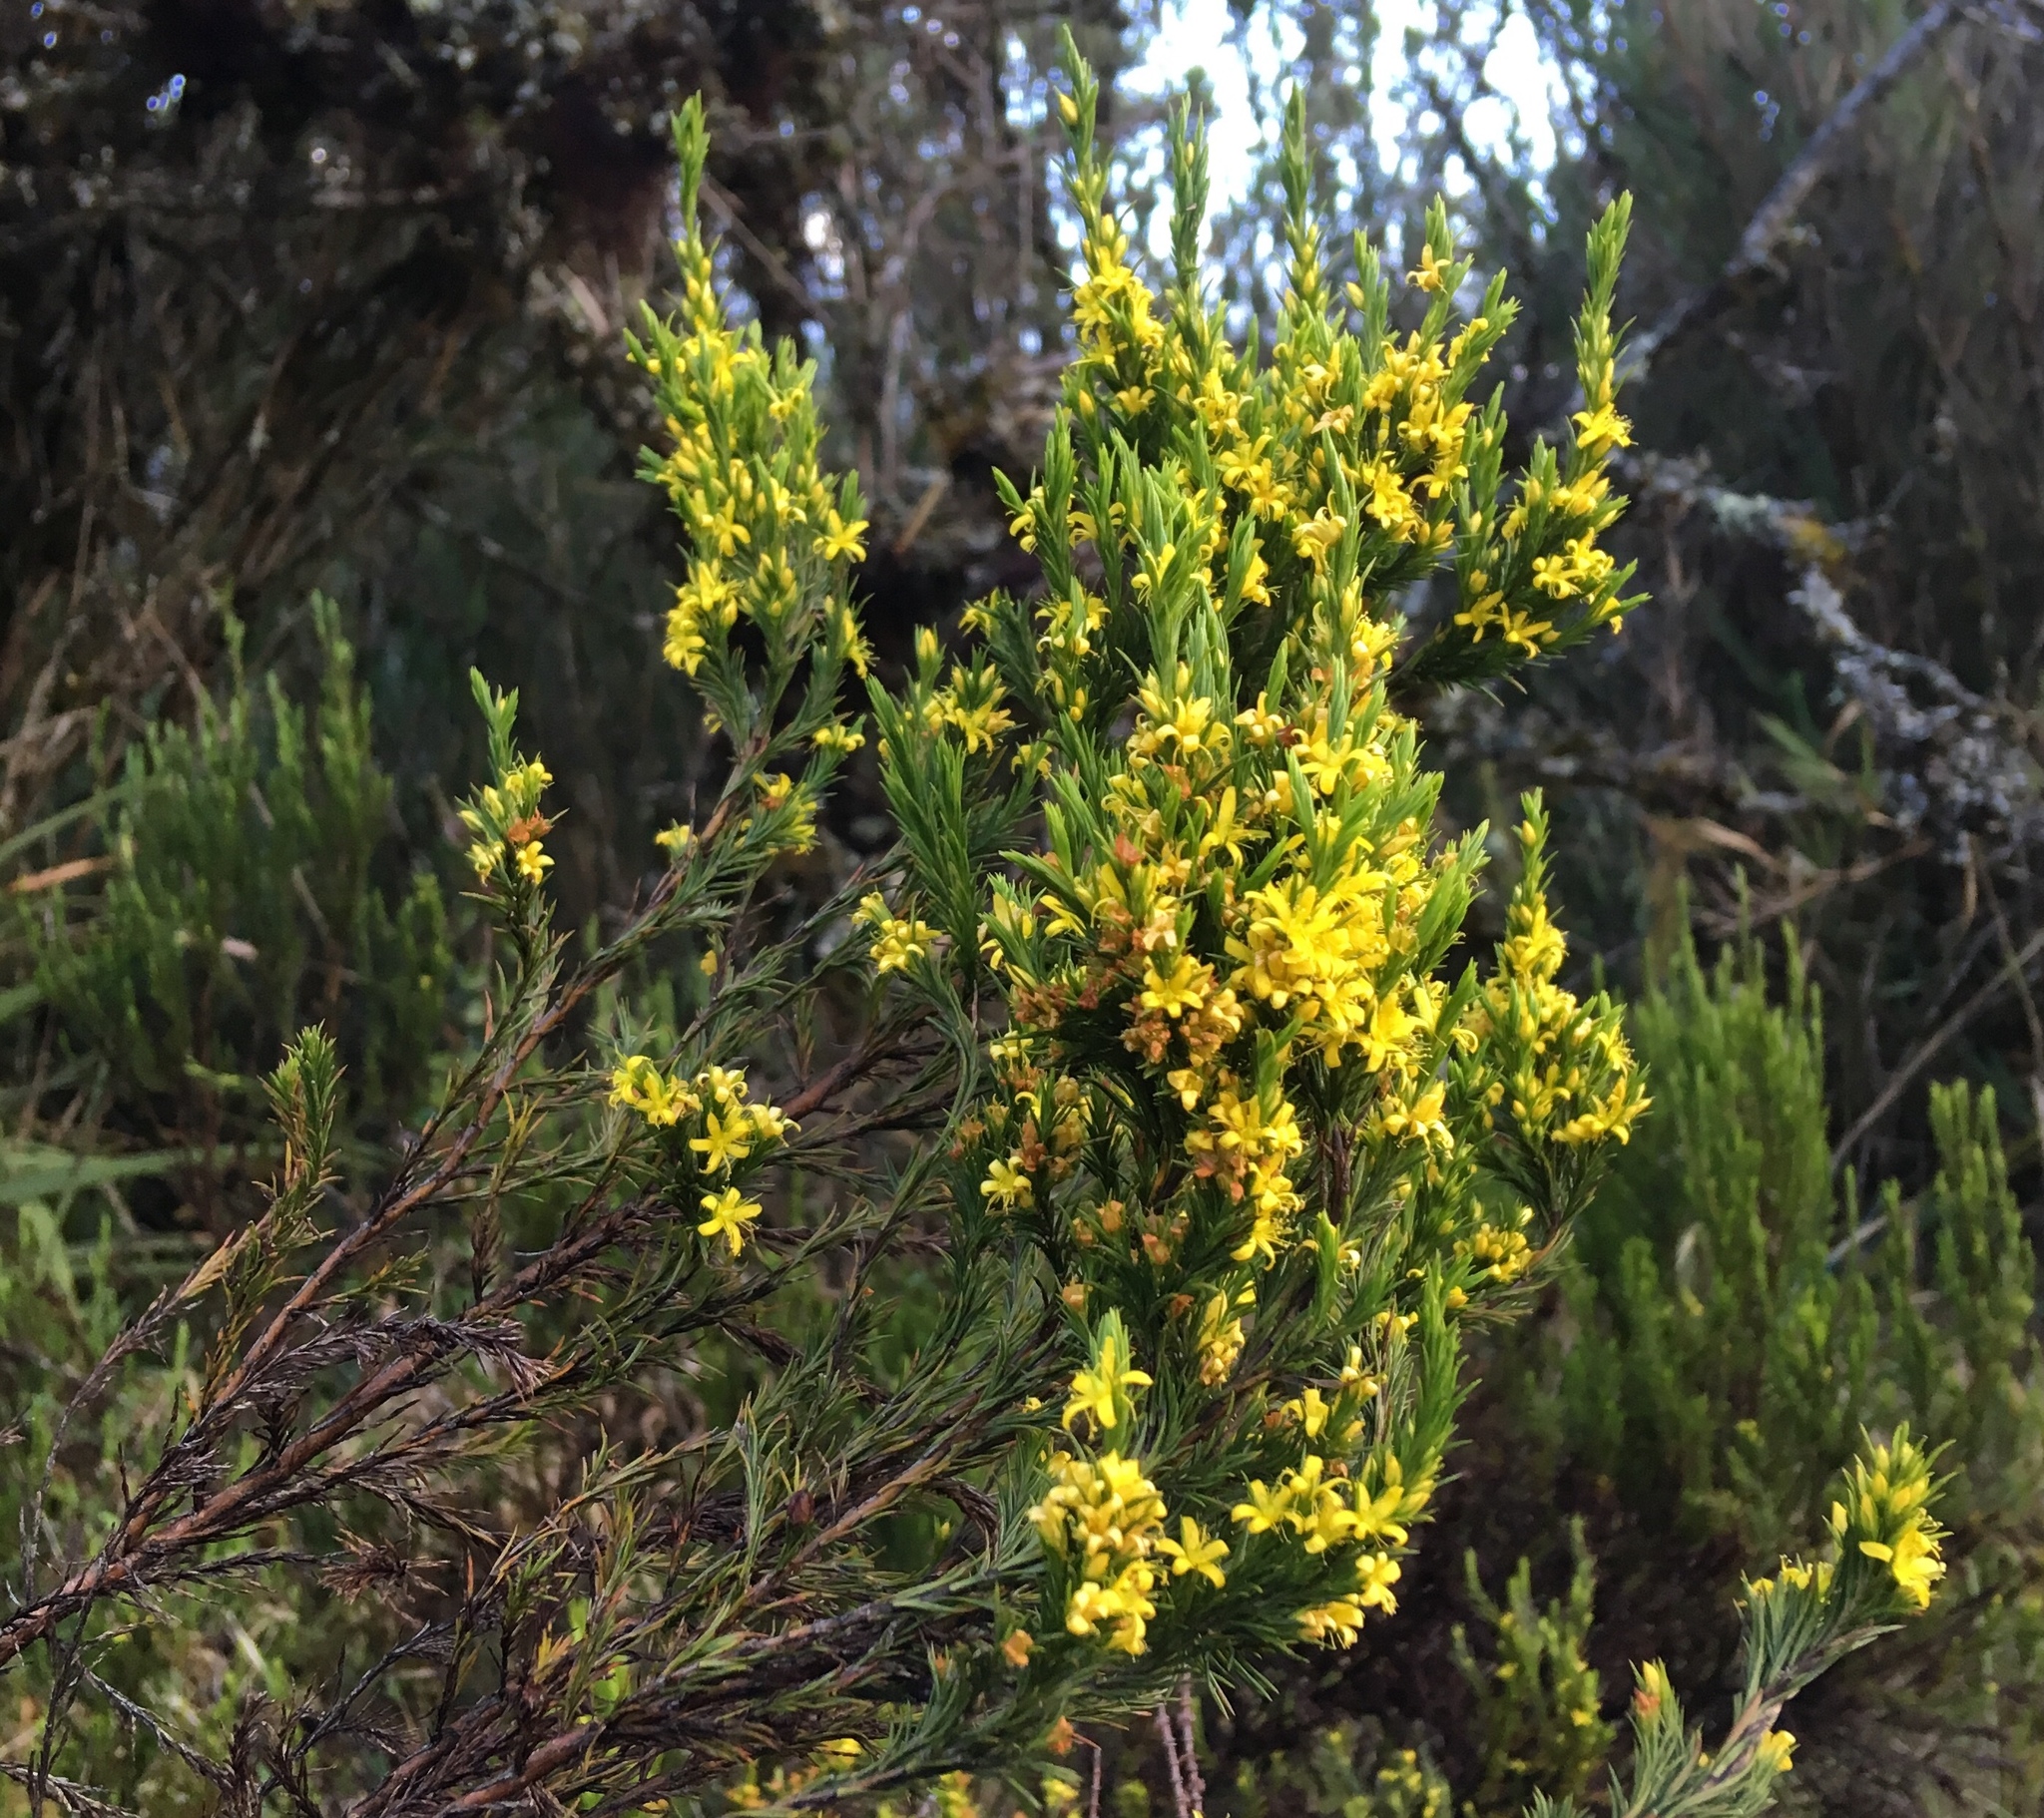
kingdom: Plantae
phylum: Tracheophyta
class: Magnoliopsida
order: Malpighiales
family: Hypericaceae
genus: Hypericum
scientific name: Hypericum juniperinum
